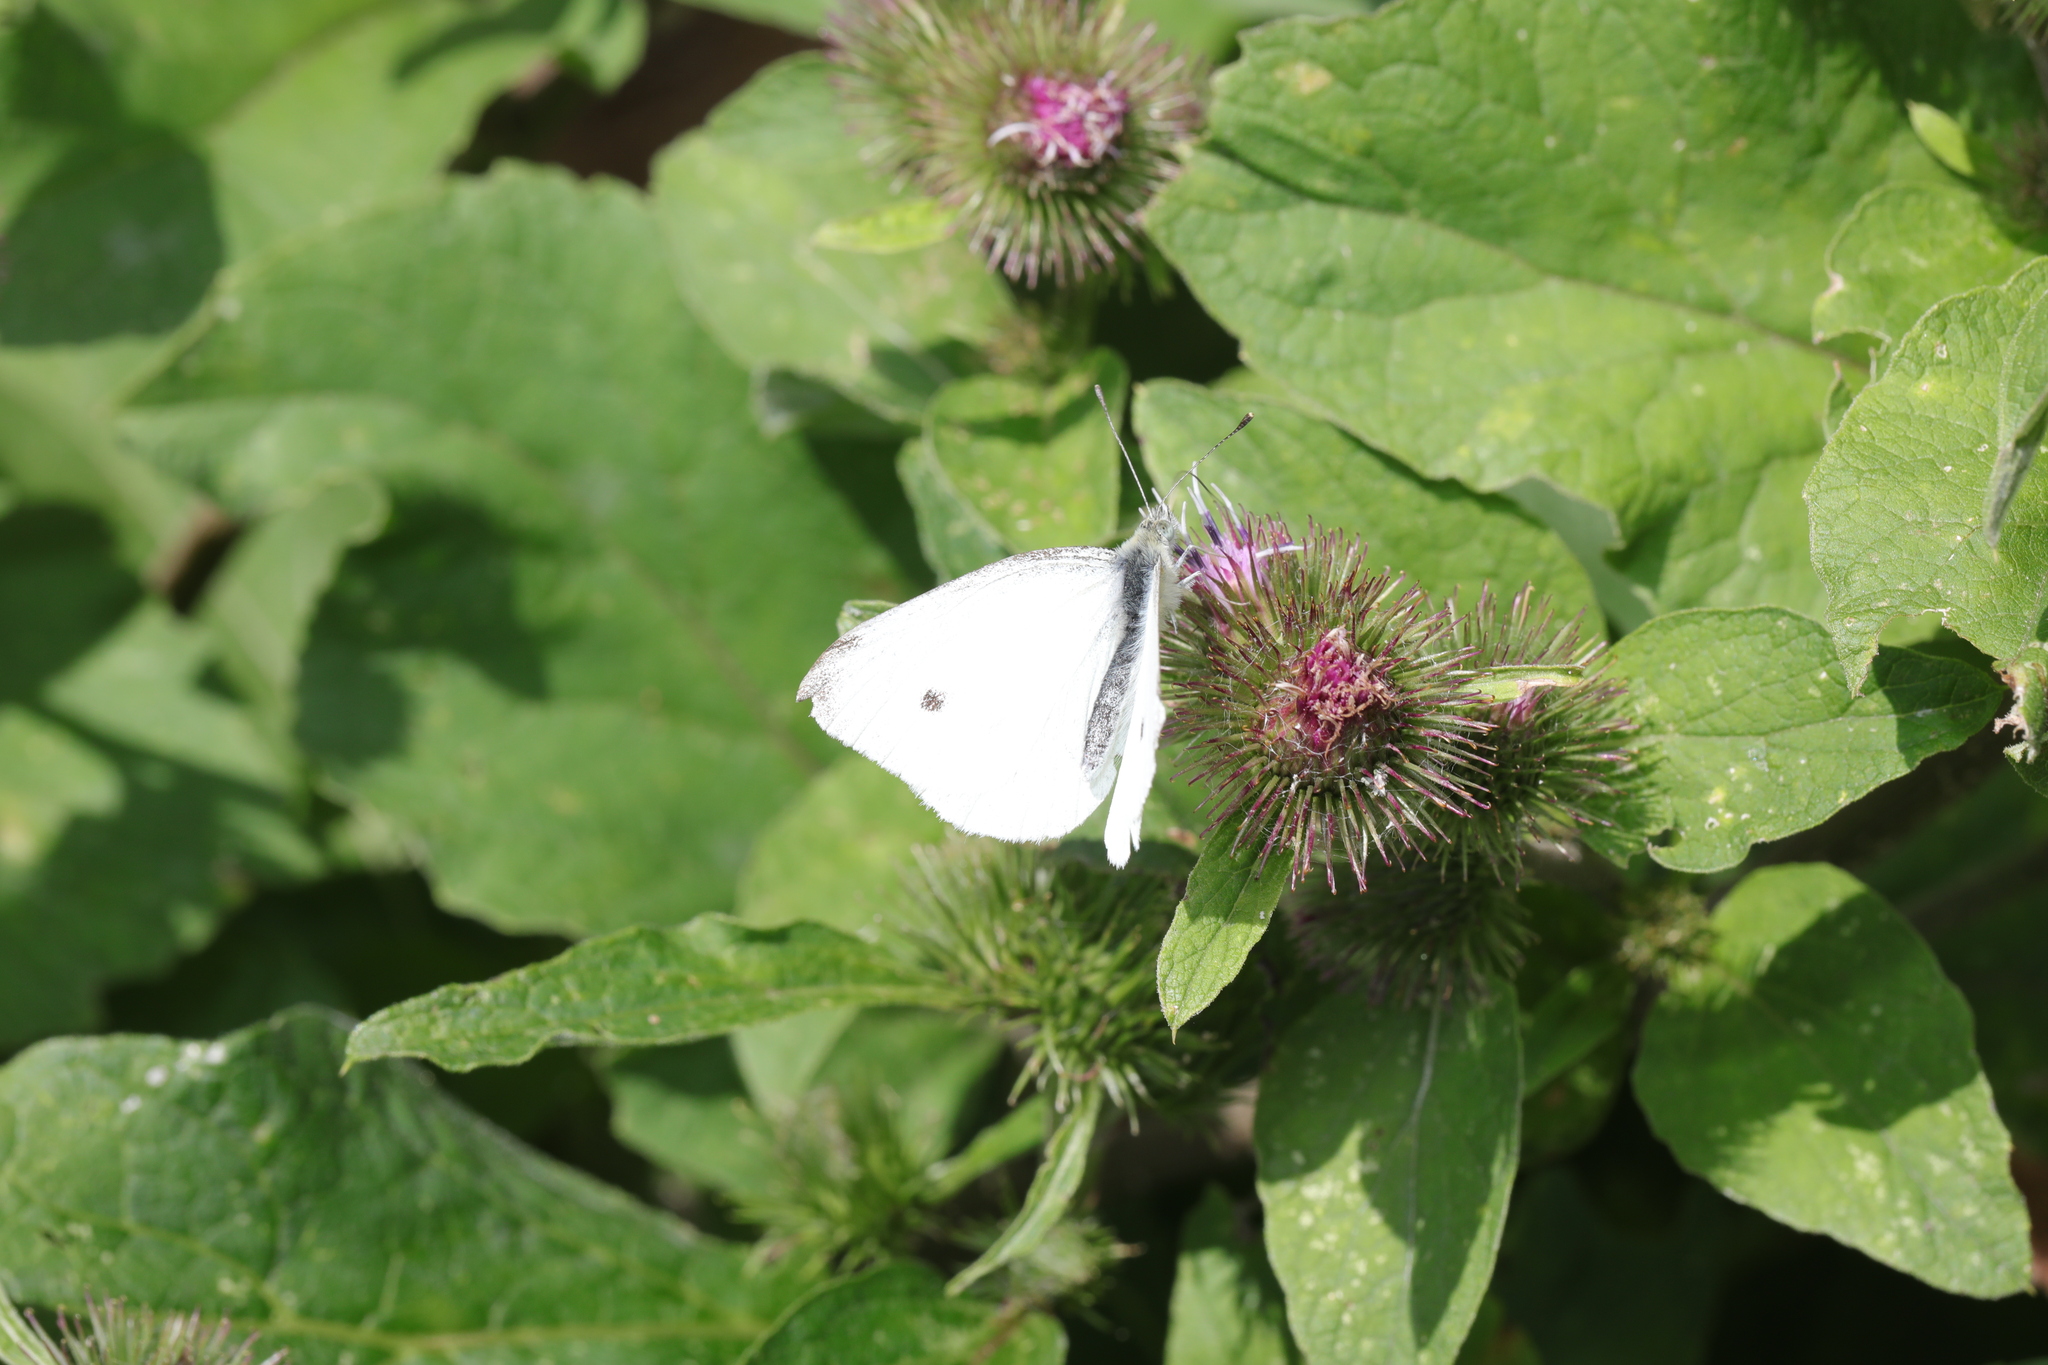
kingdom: Animalia
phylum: Arthropoda
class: Insecta
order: Lepidoptera
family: Pieridae
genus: Pieris
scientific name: Pieris rapae
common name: Small white
